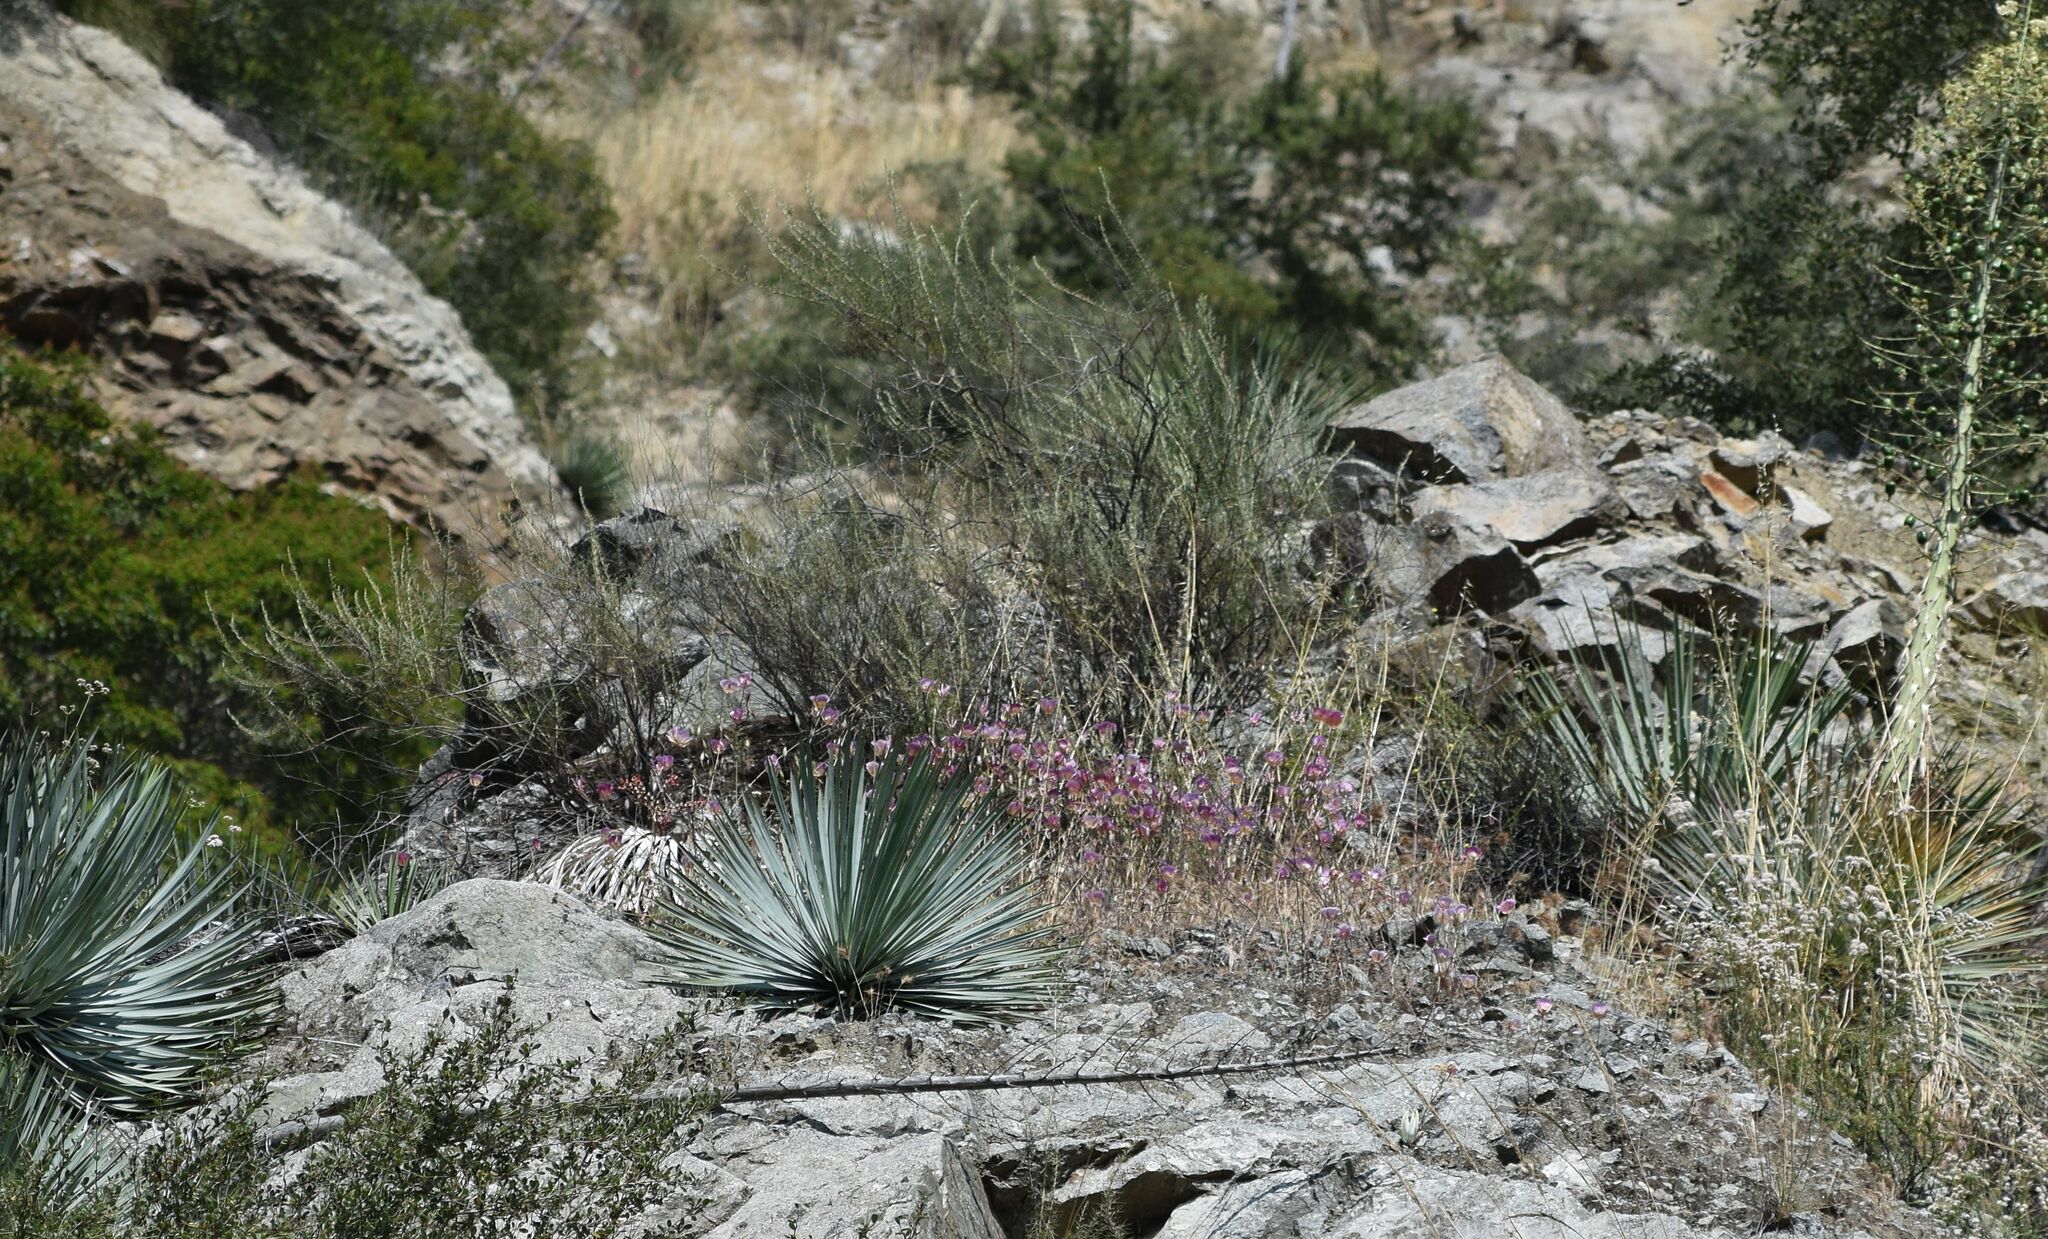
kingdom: Plantae
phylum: Tracheophyta
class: Liliopsida
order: Liliales
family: Liliaceae
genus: Calochortus
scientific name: Calochortus plummerae
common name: Plummer's mariposa-lily
